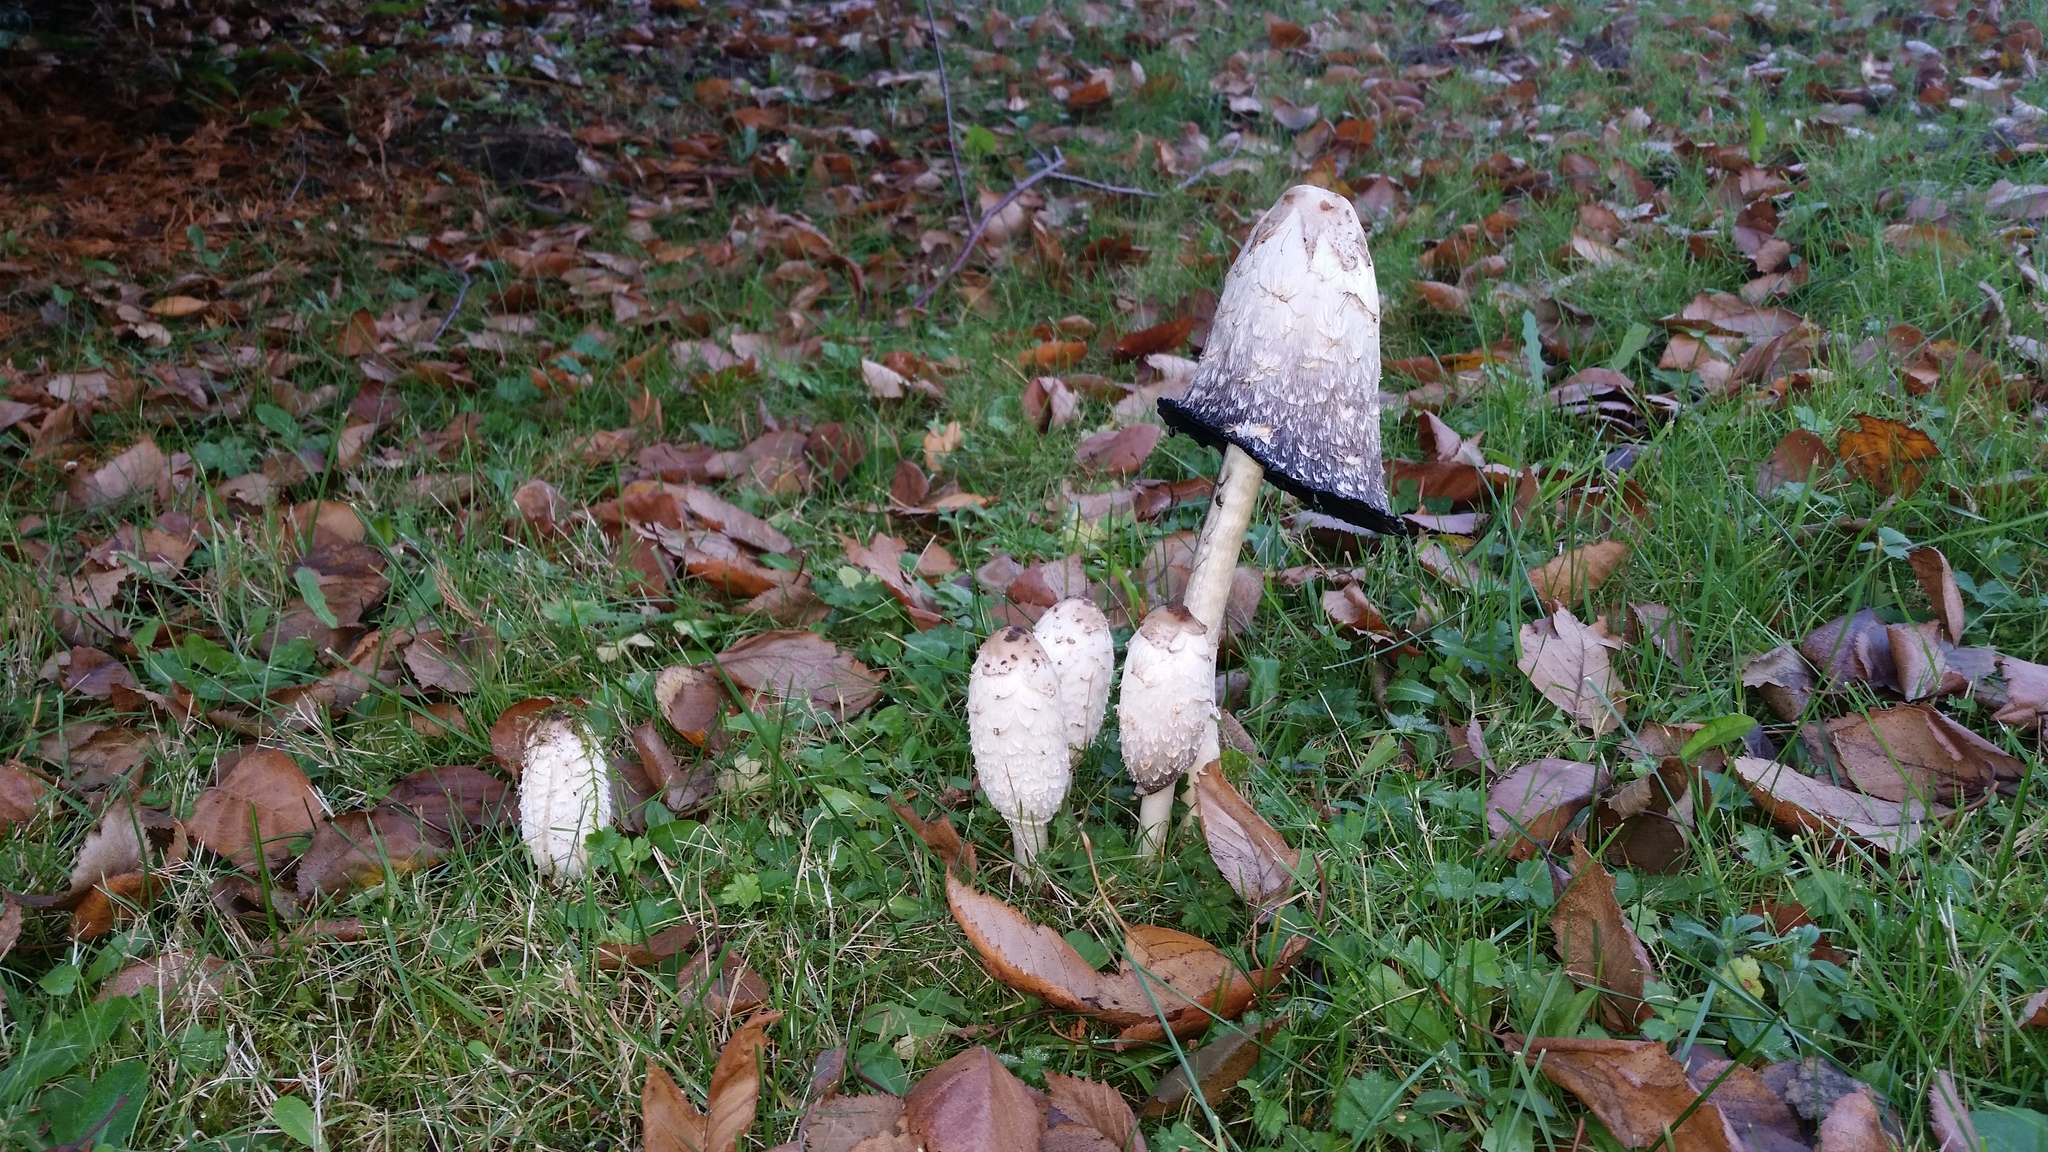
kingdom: Fungi
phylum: Basidiomycota
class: Agaricomycetes
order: Agaricales
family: Agaricaceae
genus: Coprinus
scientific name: Coprinus comatus
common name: Lawyer's wig
